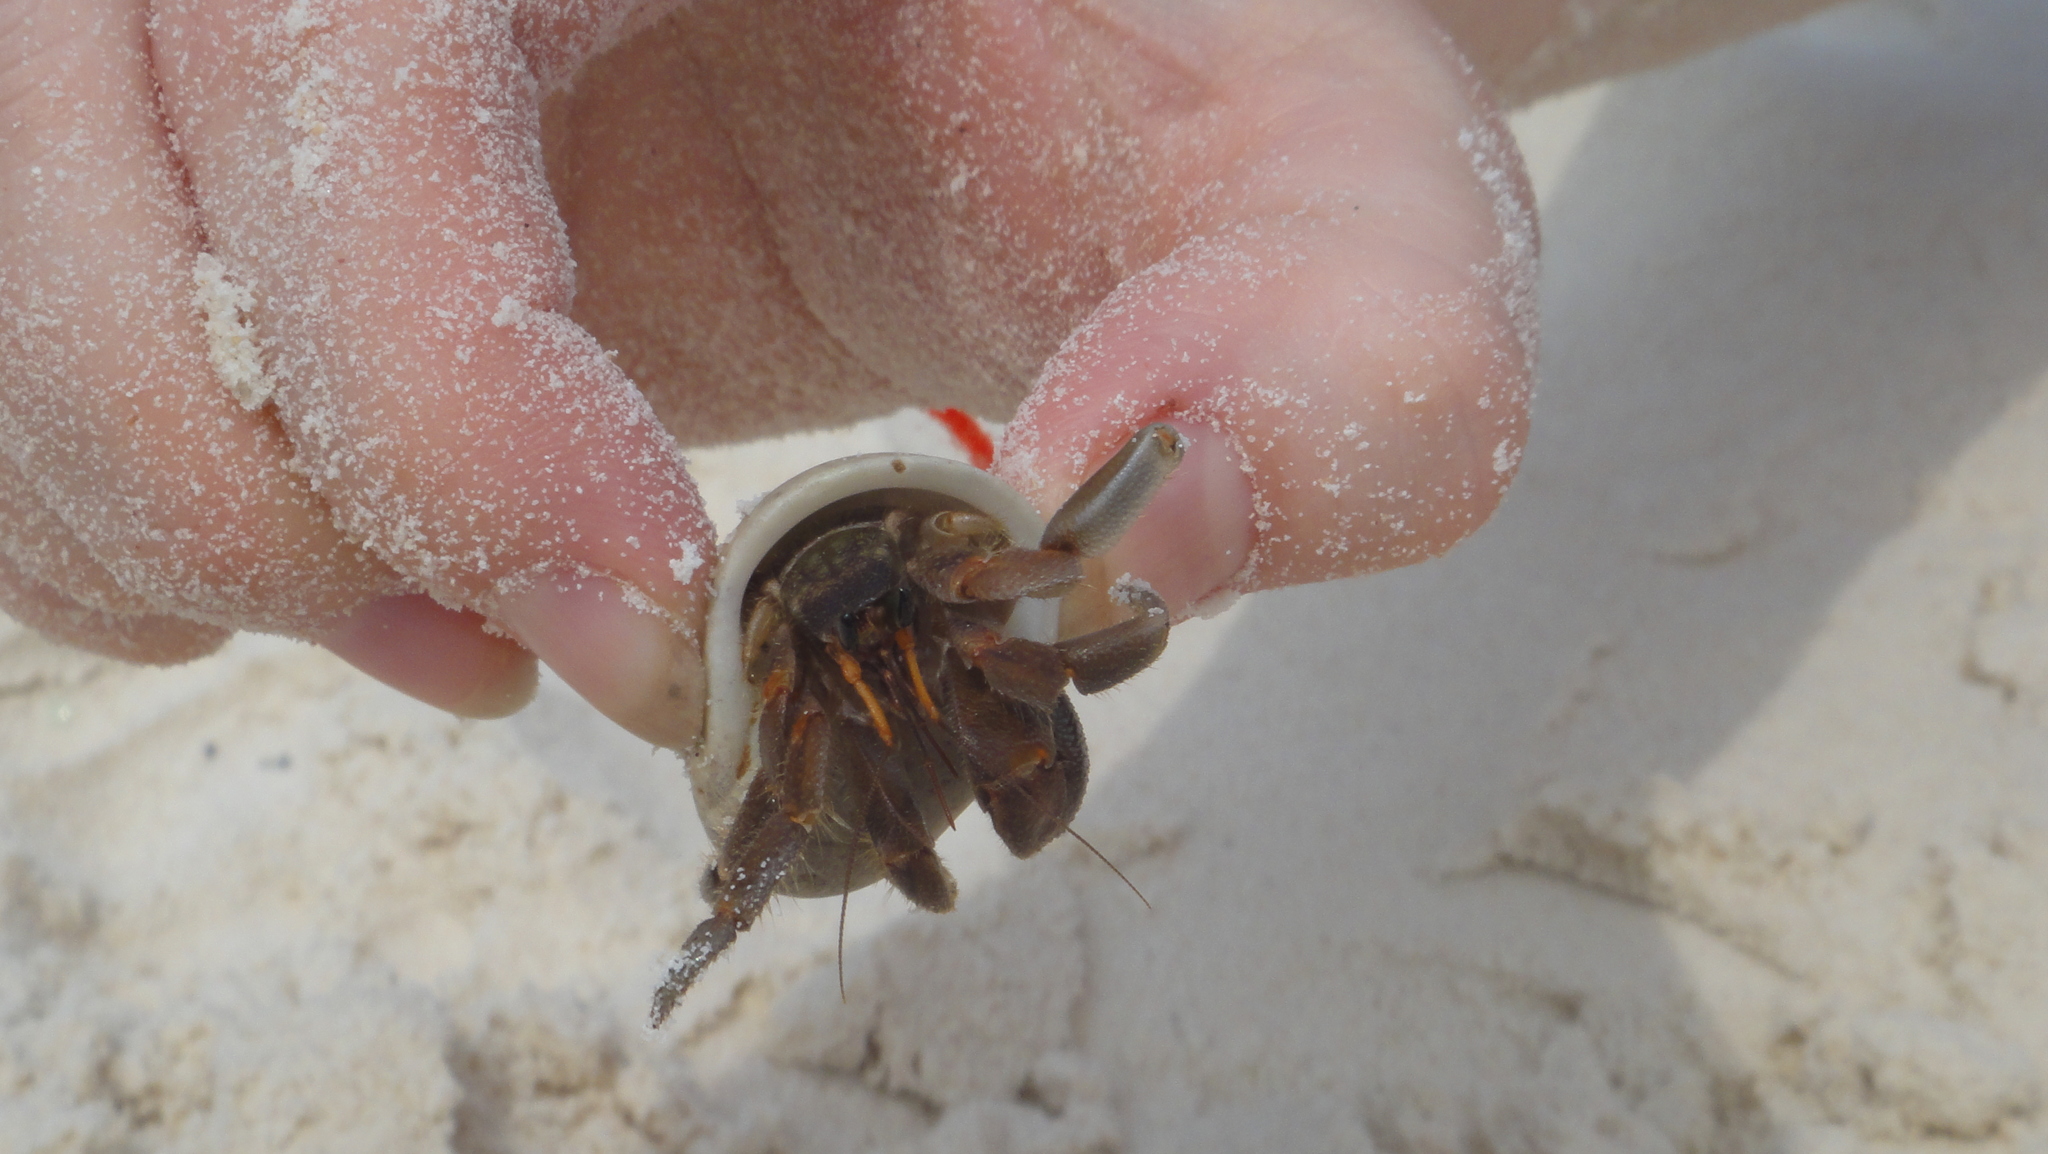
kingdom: Animalia
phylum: Arthropoda
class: Malacostraca
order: Decapoda
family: Coenobitidae
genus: Coenobita
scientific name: Coenobita rugosus
